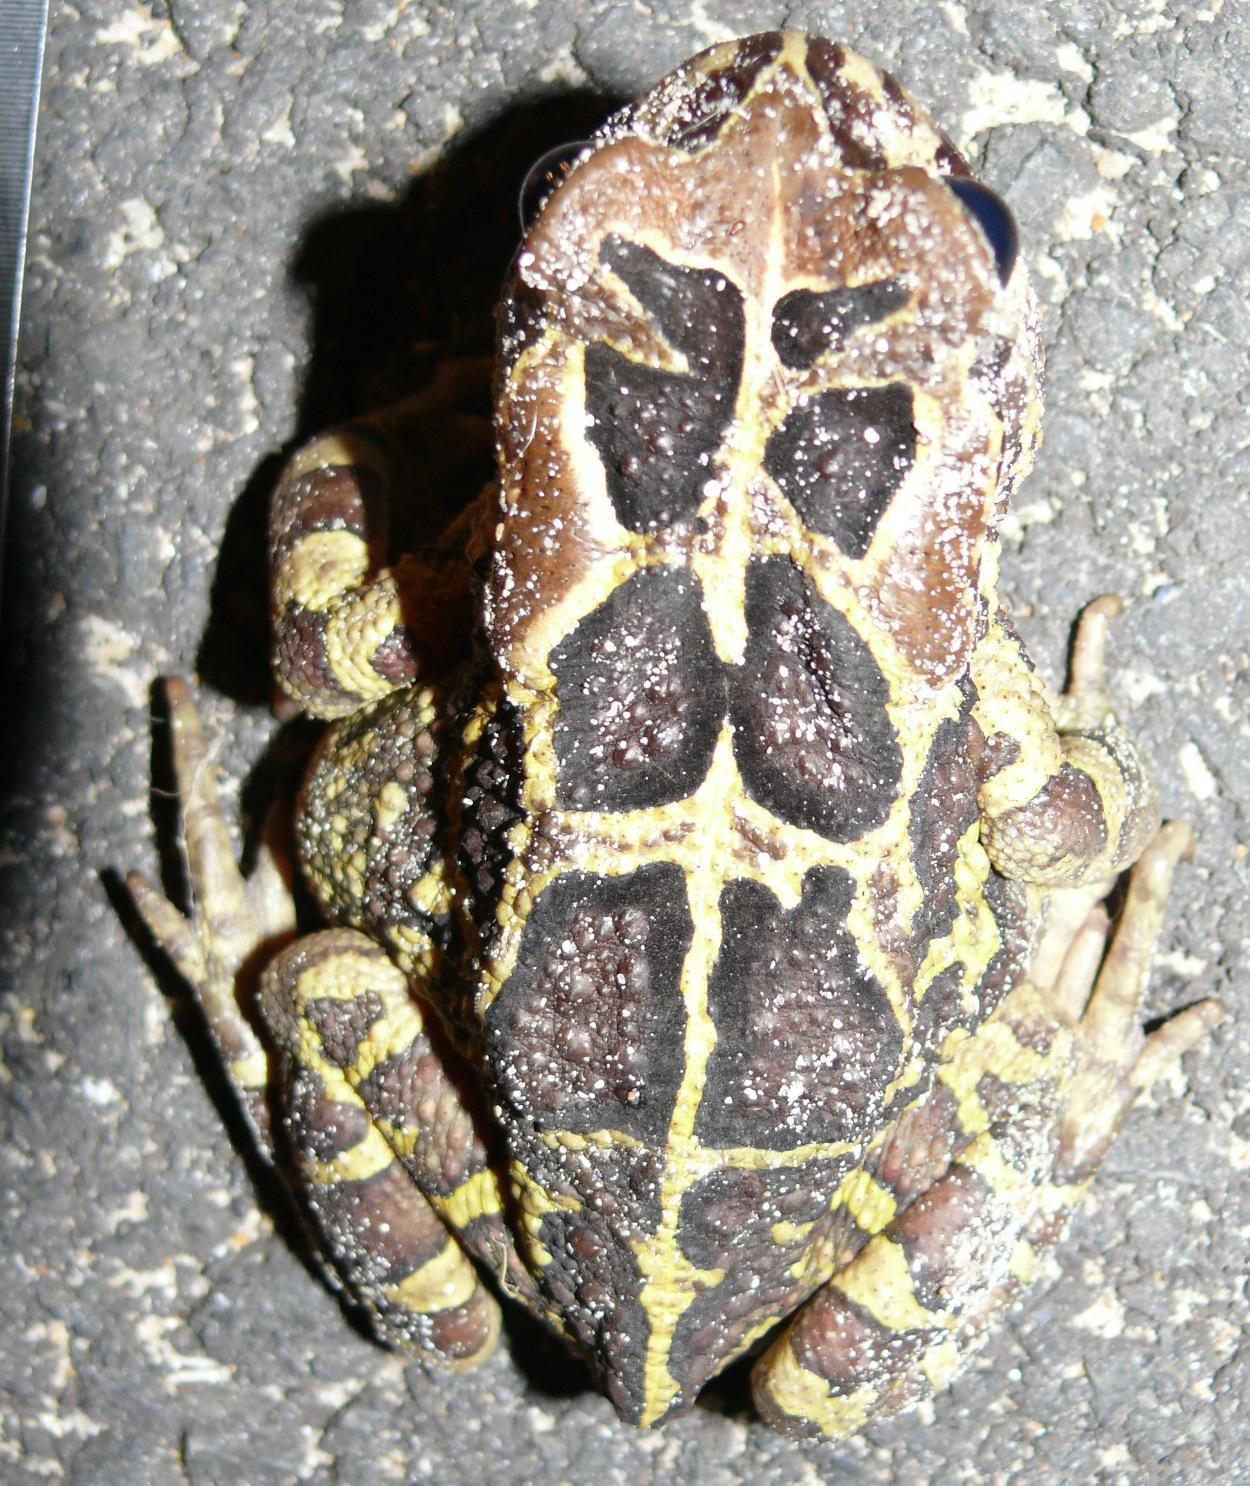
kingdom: Animalia
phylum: Chordata
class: Amphibia
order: Anura
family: Bufonidae
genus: Sclerophrys
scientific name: Sclerophrys pantherina
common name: Panther toad
